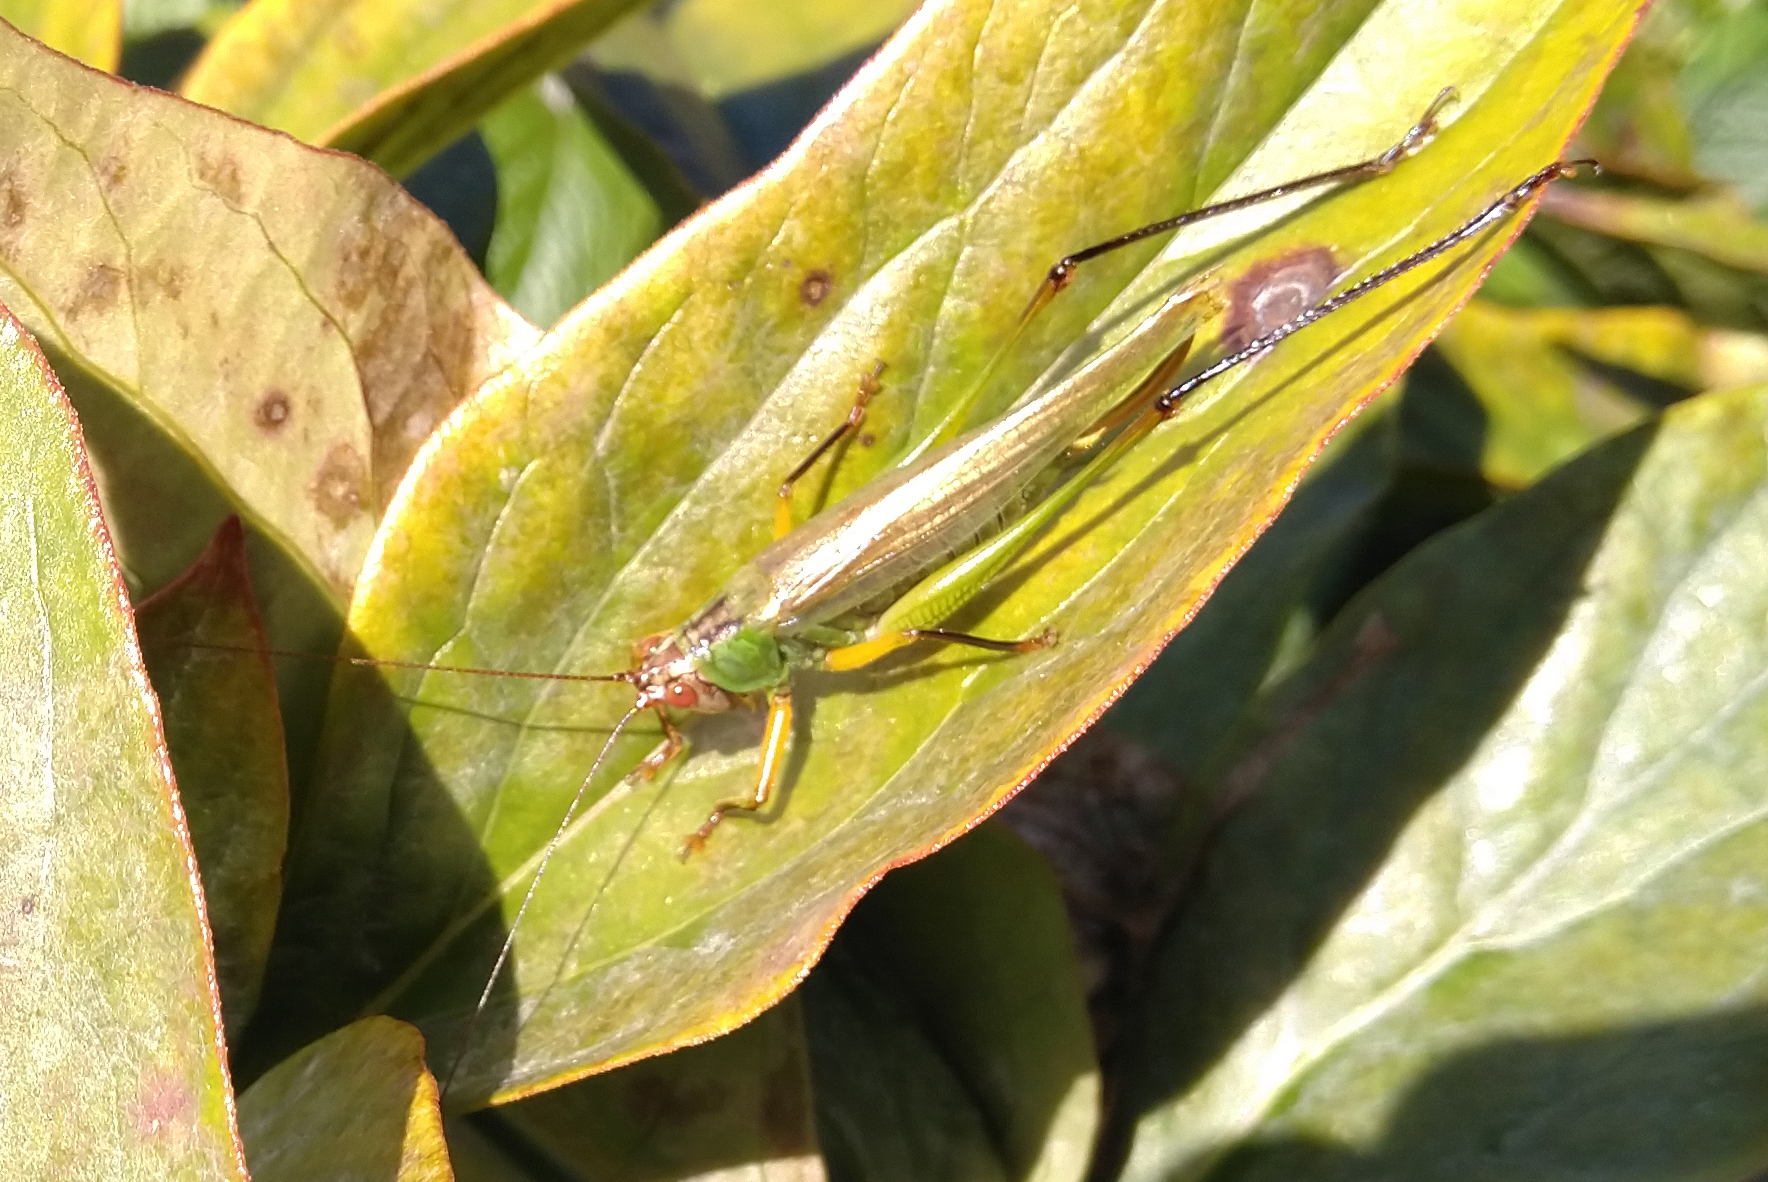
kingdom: Animalia
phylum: Arthropoda
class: Insecta
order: Orthoptera
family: Tettigoniidae
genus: Orchelimum
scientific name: Orchelimum nigripes
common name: Black-legged meadow katydid
